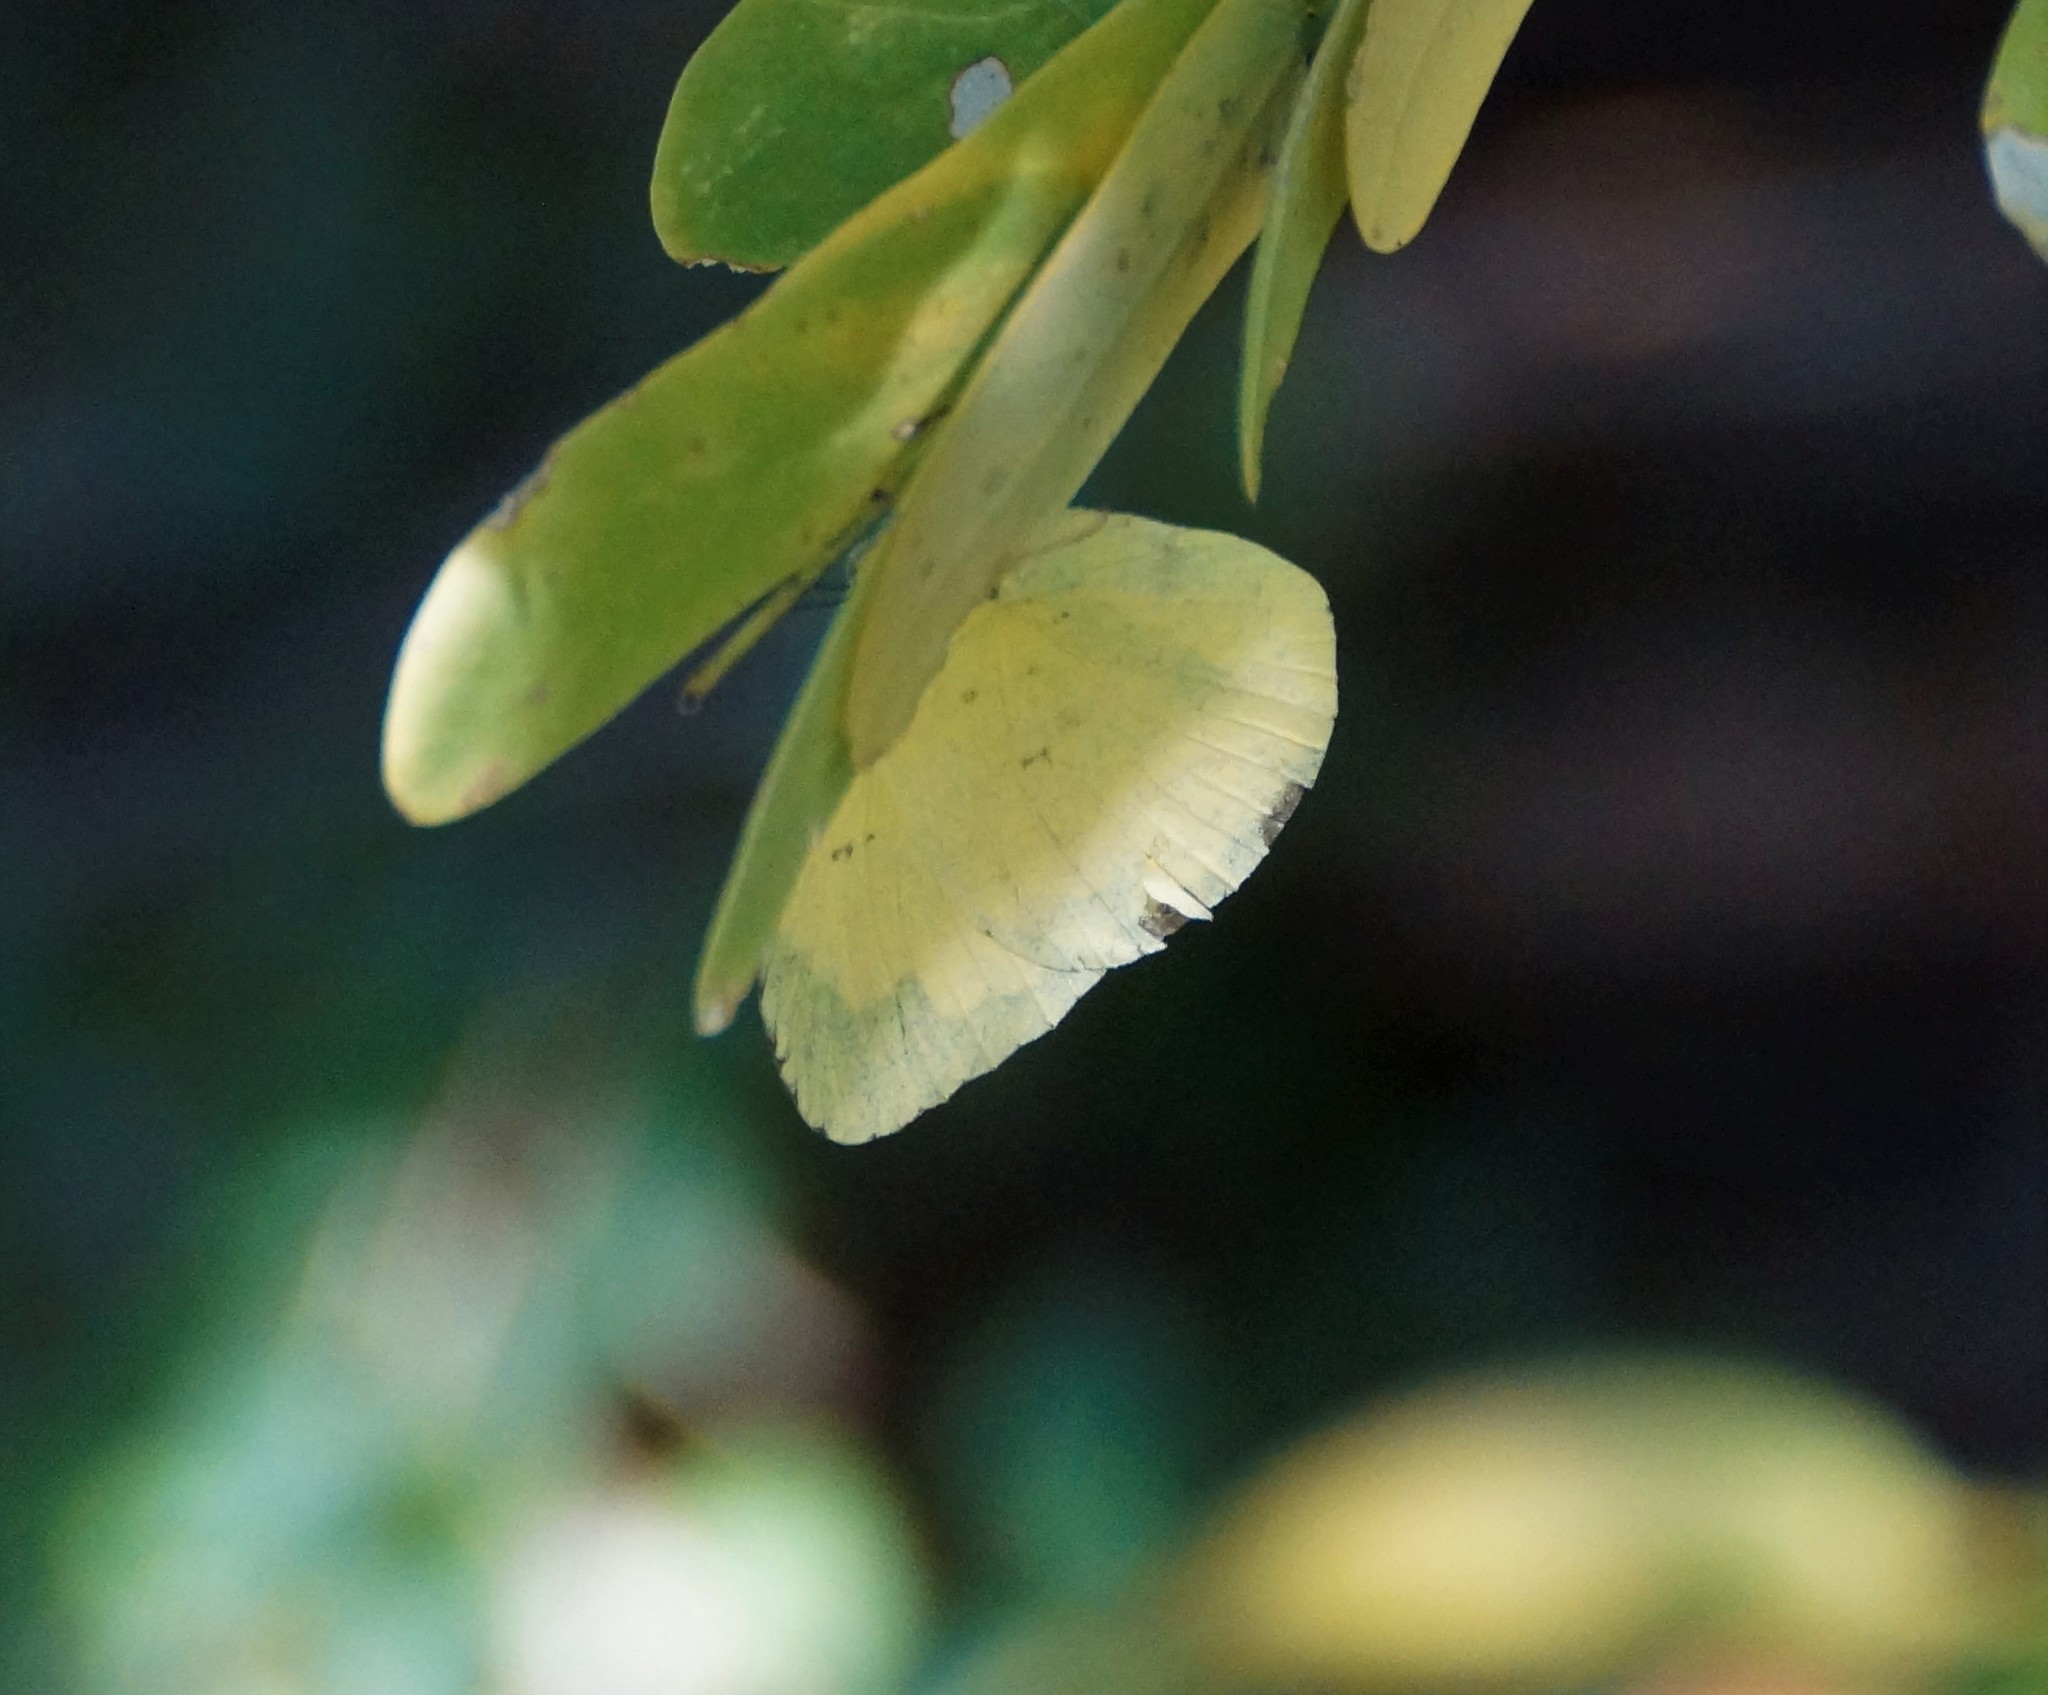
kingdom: Animalia
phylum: Arthropoda
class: Insecta
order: Lepidoptera
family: Pieridae
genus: Eurema
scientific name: Eurema hecabe
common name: Pale grass yellow
